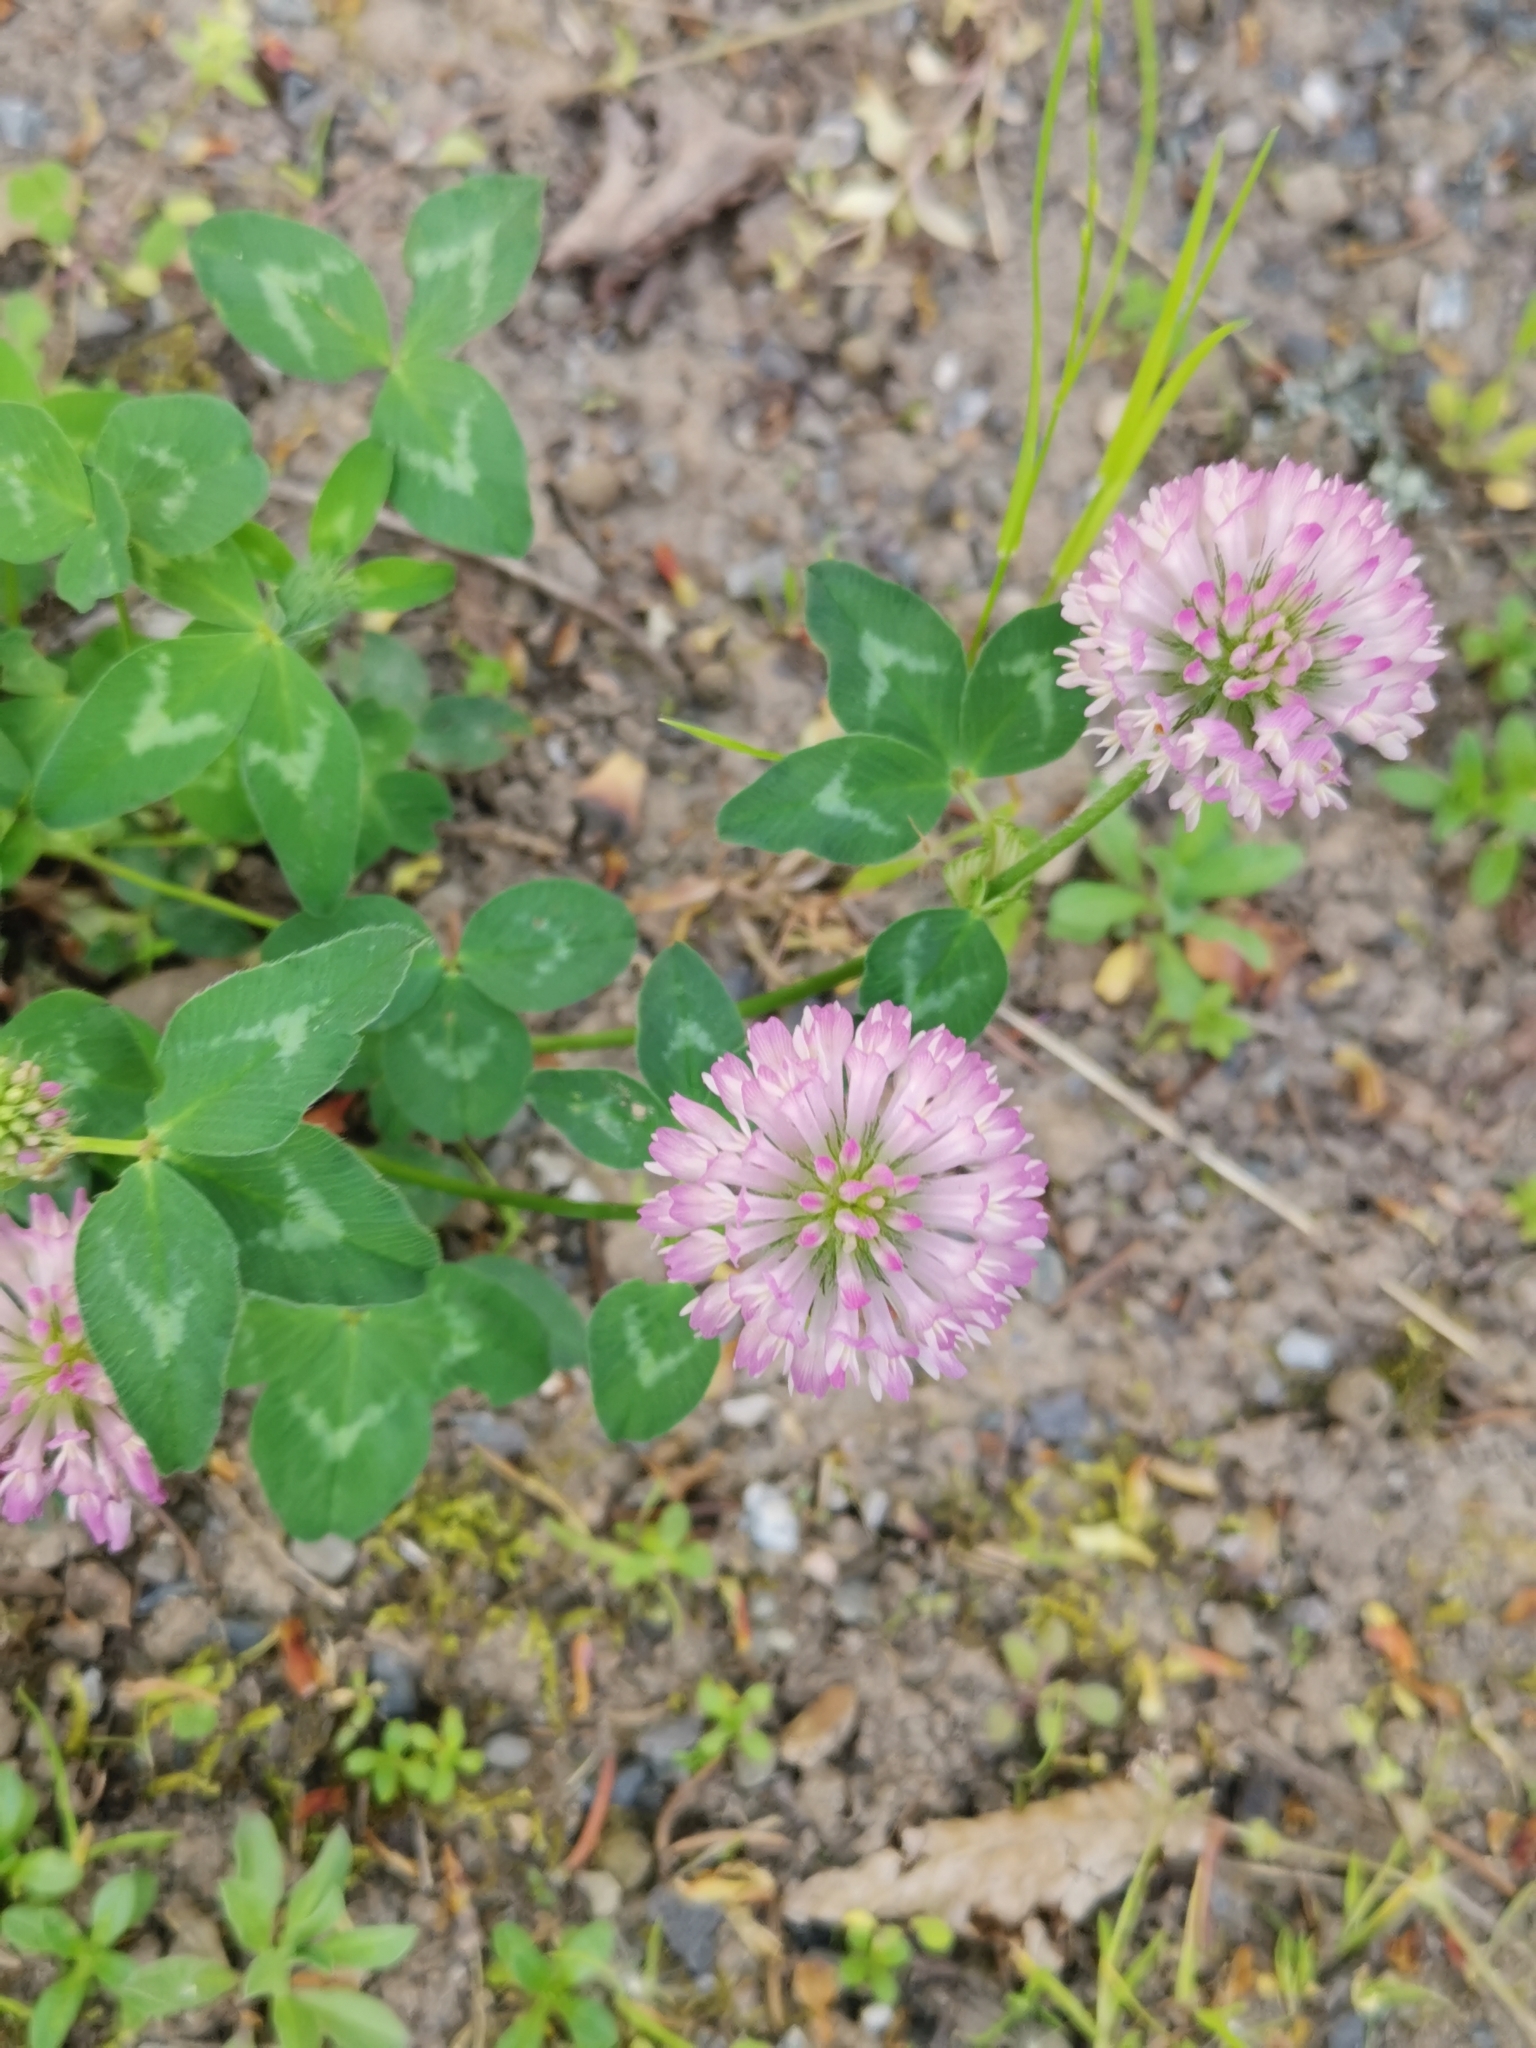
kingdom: Plantae
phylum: Tracheophyta
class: Magnoliopsida
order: Fabales
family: Fabaceae
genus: Trifolium
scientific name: Trifolium pratense
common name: Red clover
